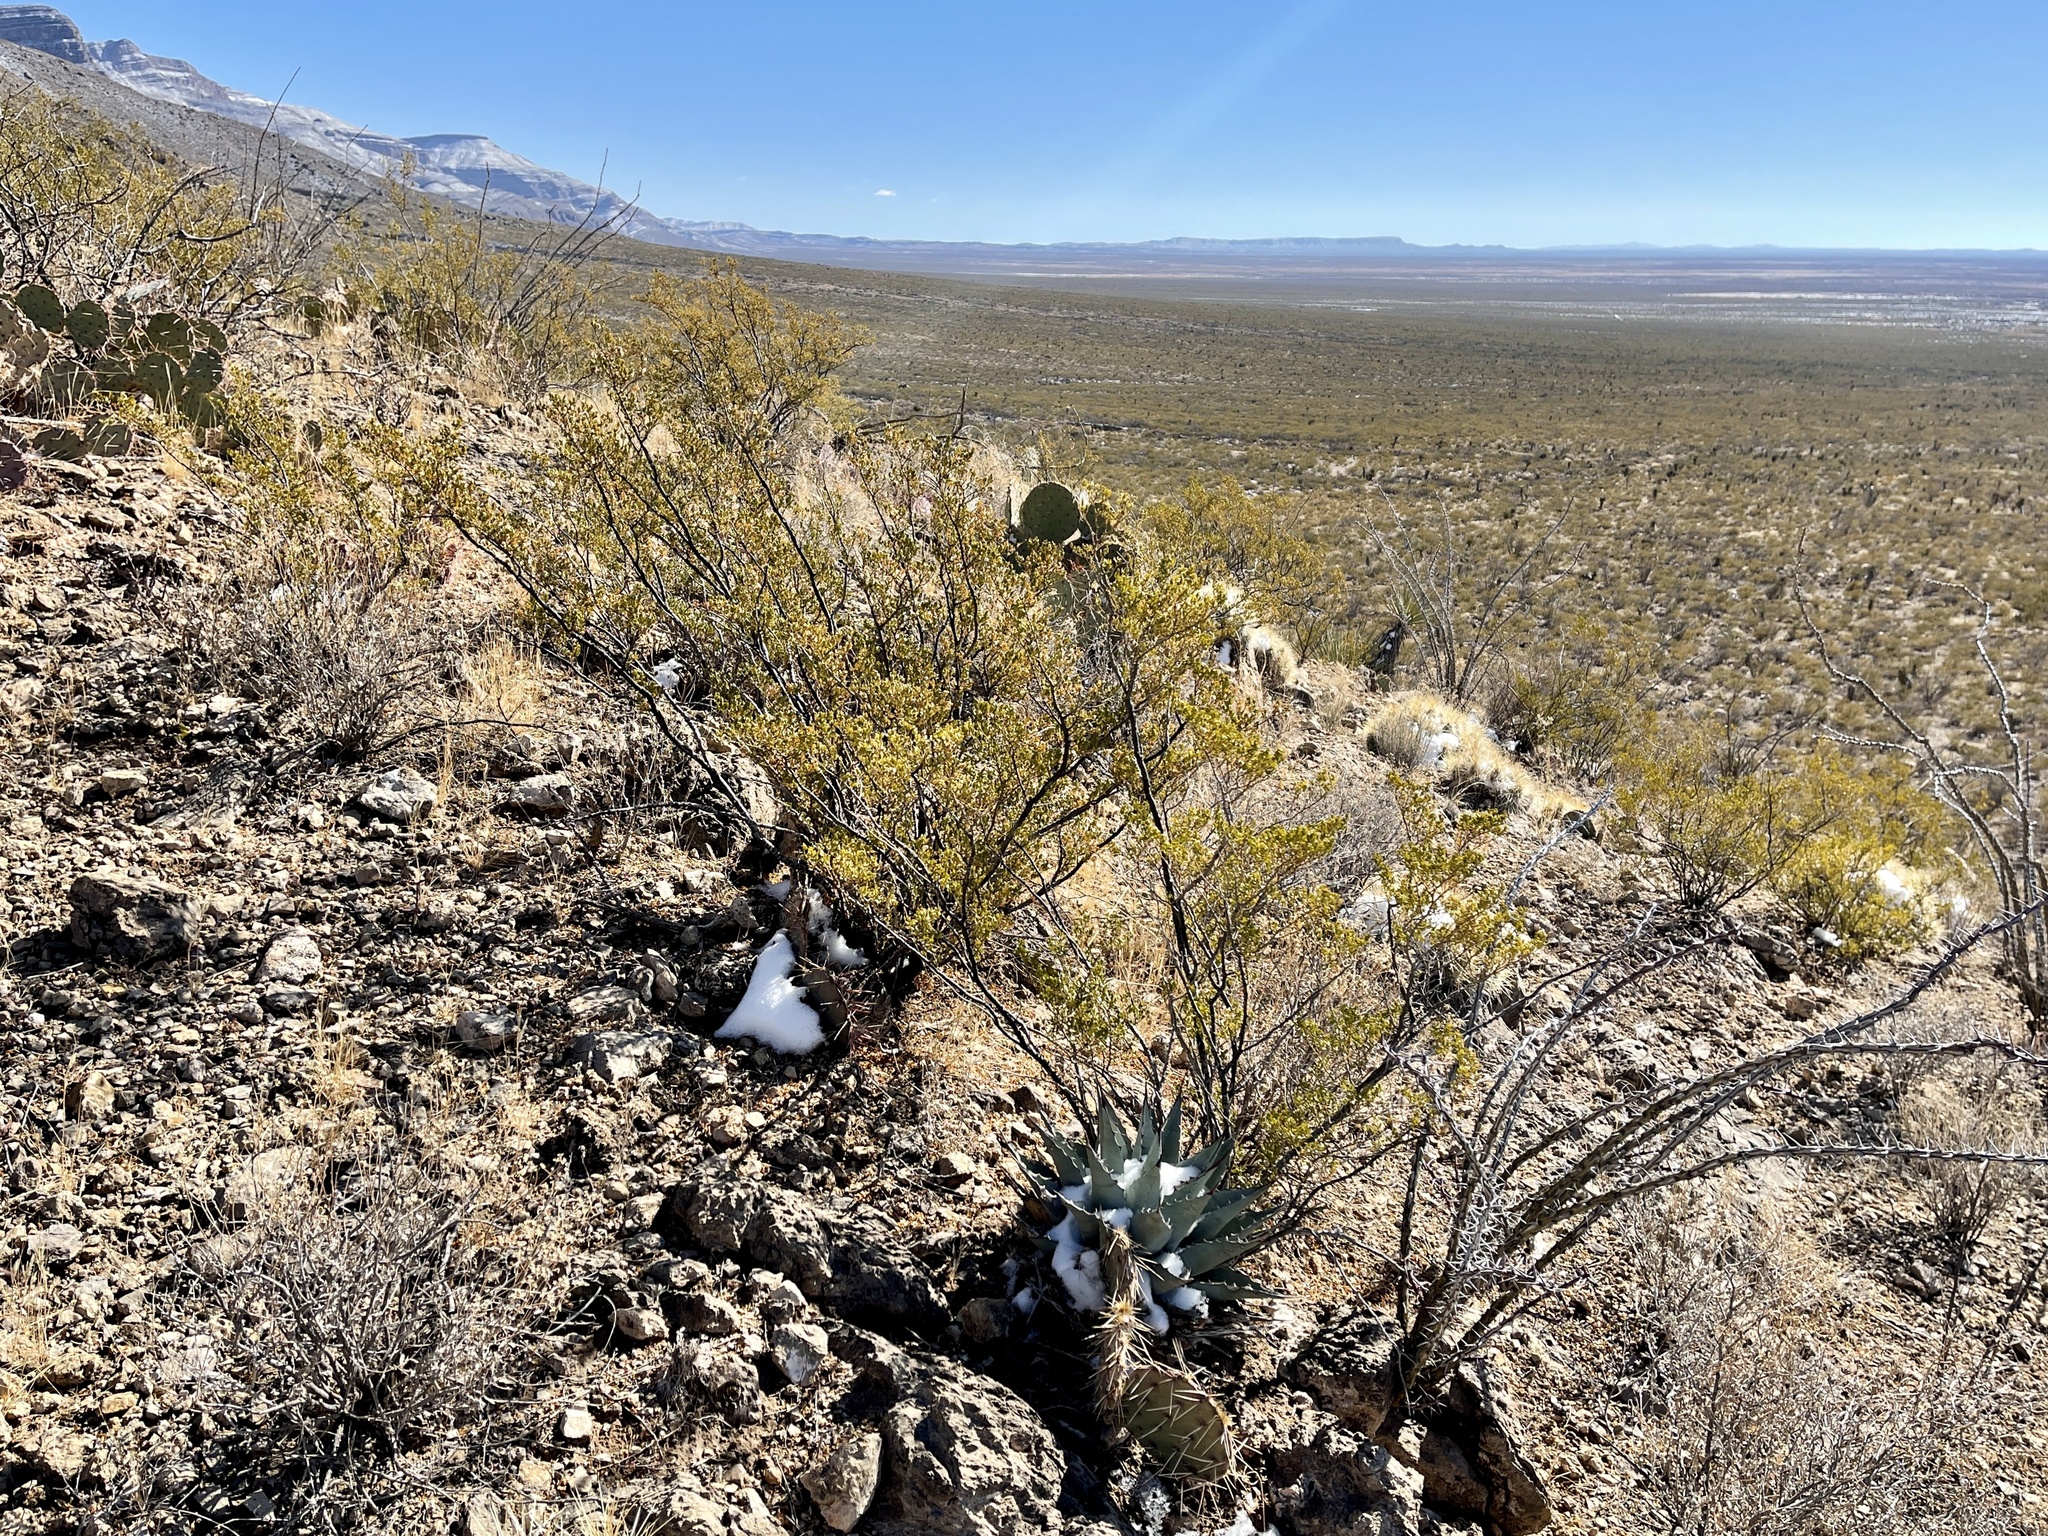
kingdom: Plantae
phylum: Tracheophyta
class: Magnoliopsida
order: Zygophyllales
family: Zygophyllaceae
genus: Larrea
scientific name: Larrea tridentata
